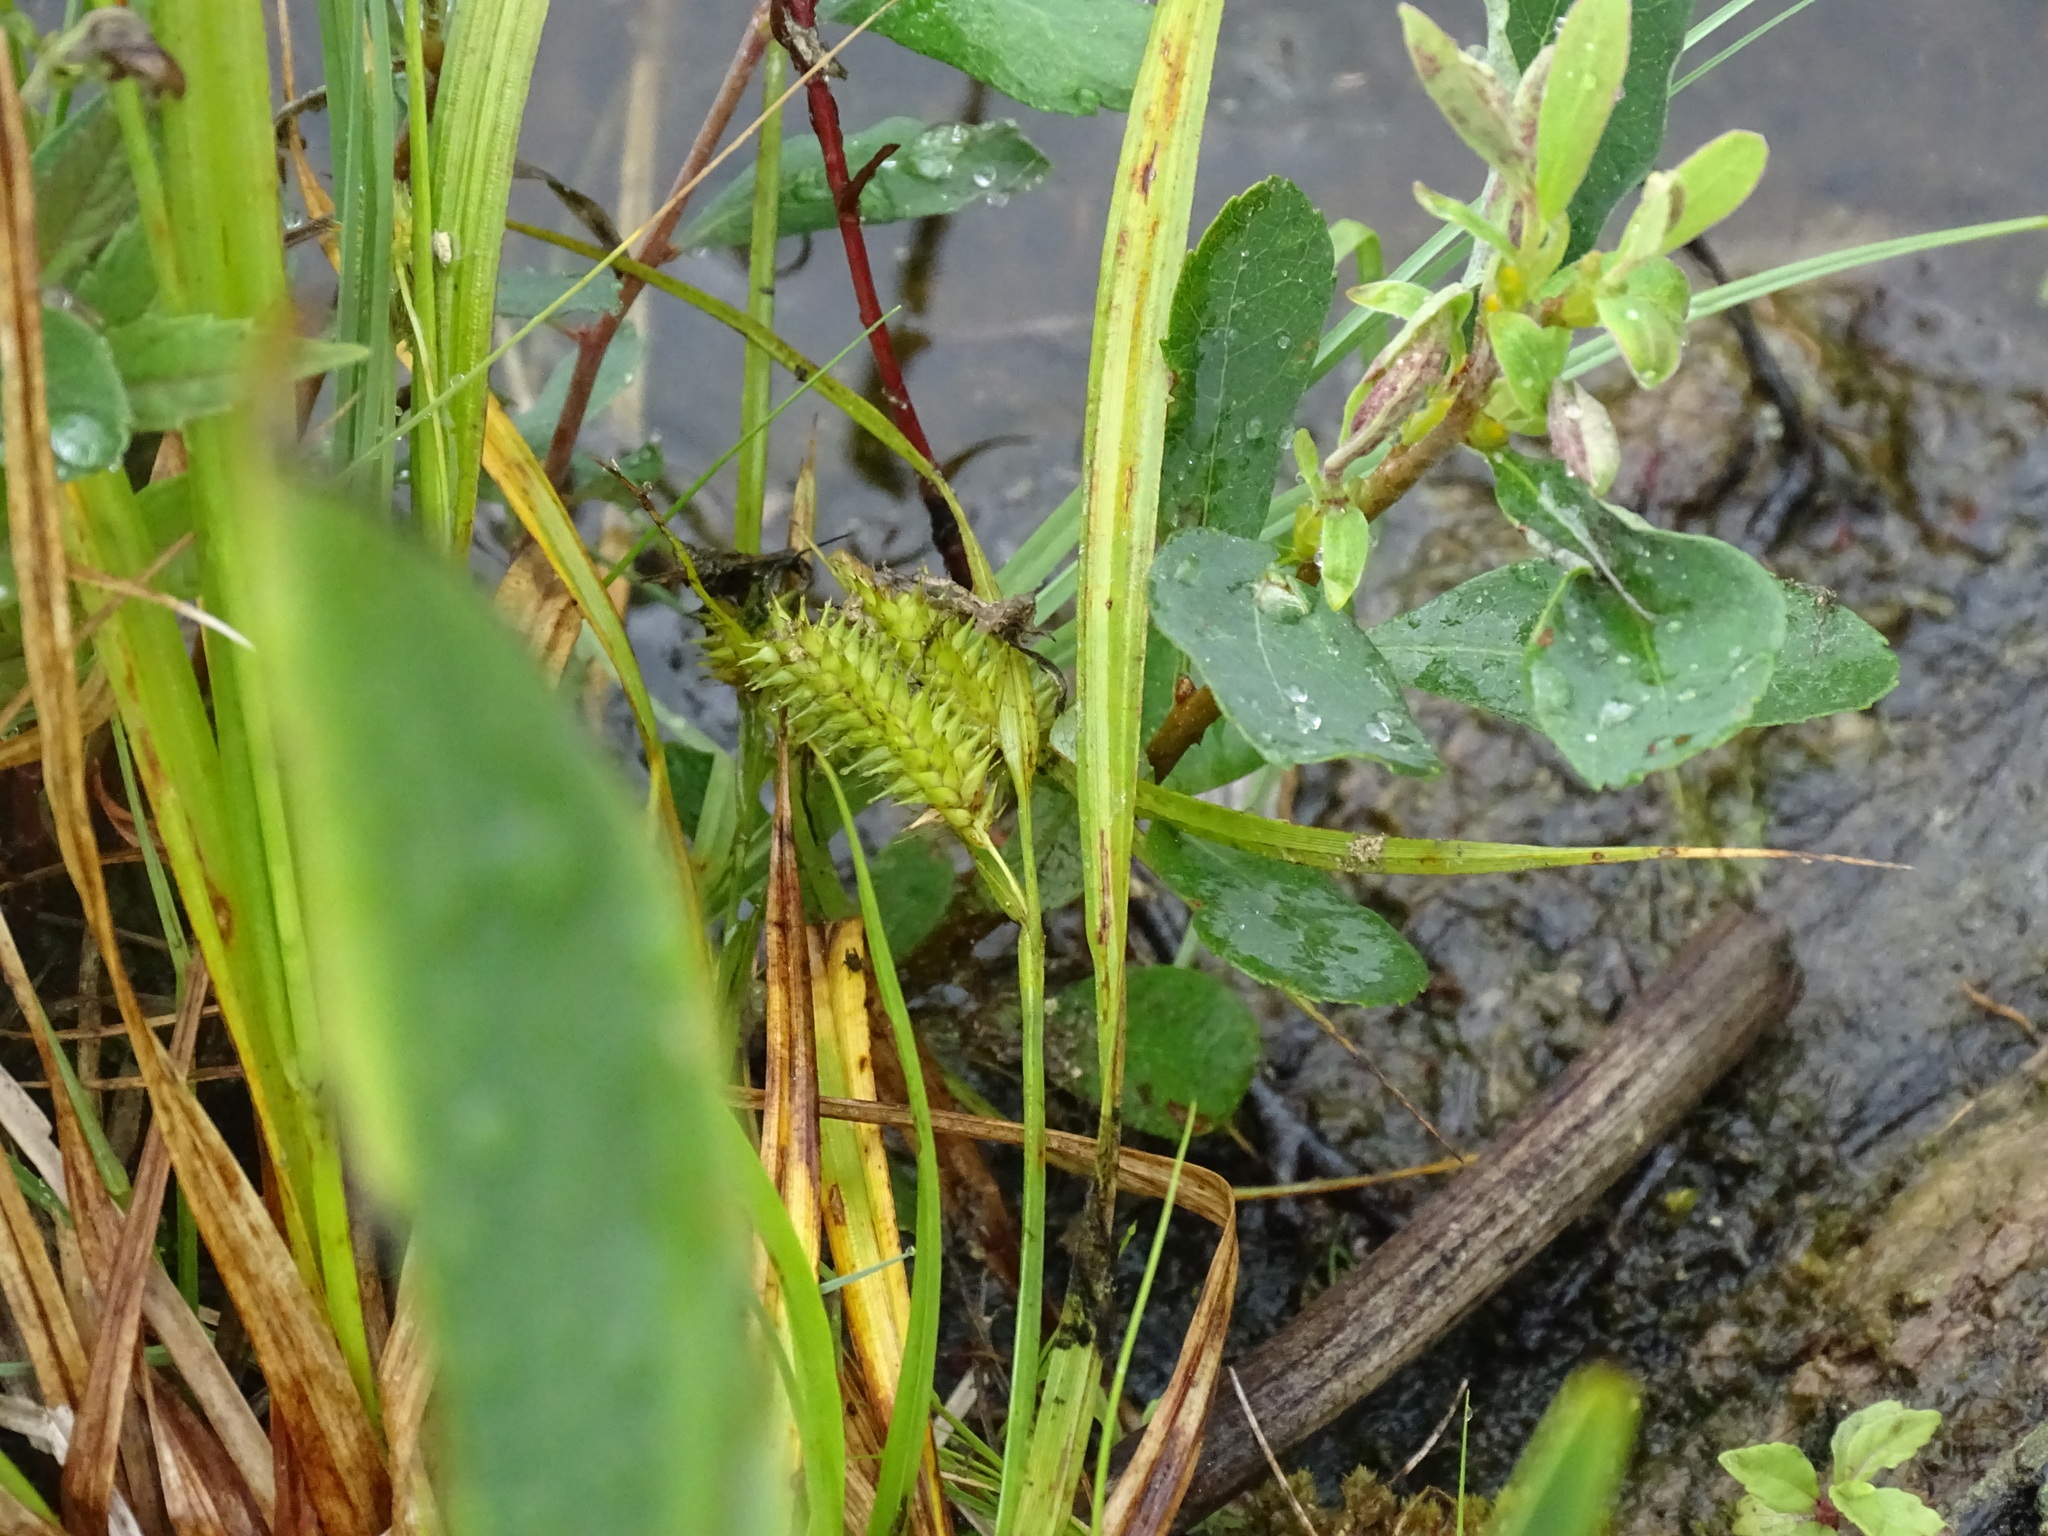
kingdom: Plantae
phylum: Tracheophyta
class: Liliopsida
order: Poales
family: Cyperaceae
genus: Carex
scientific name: Carex hystericina
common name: Bottlebrush sedge
